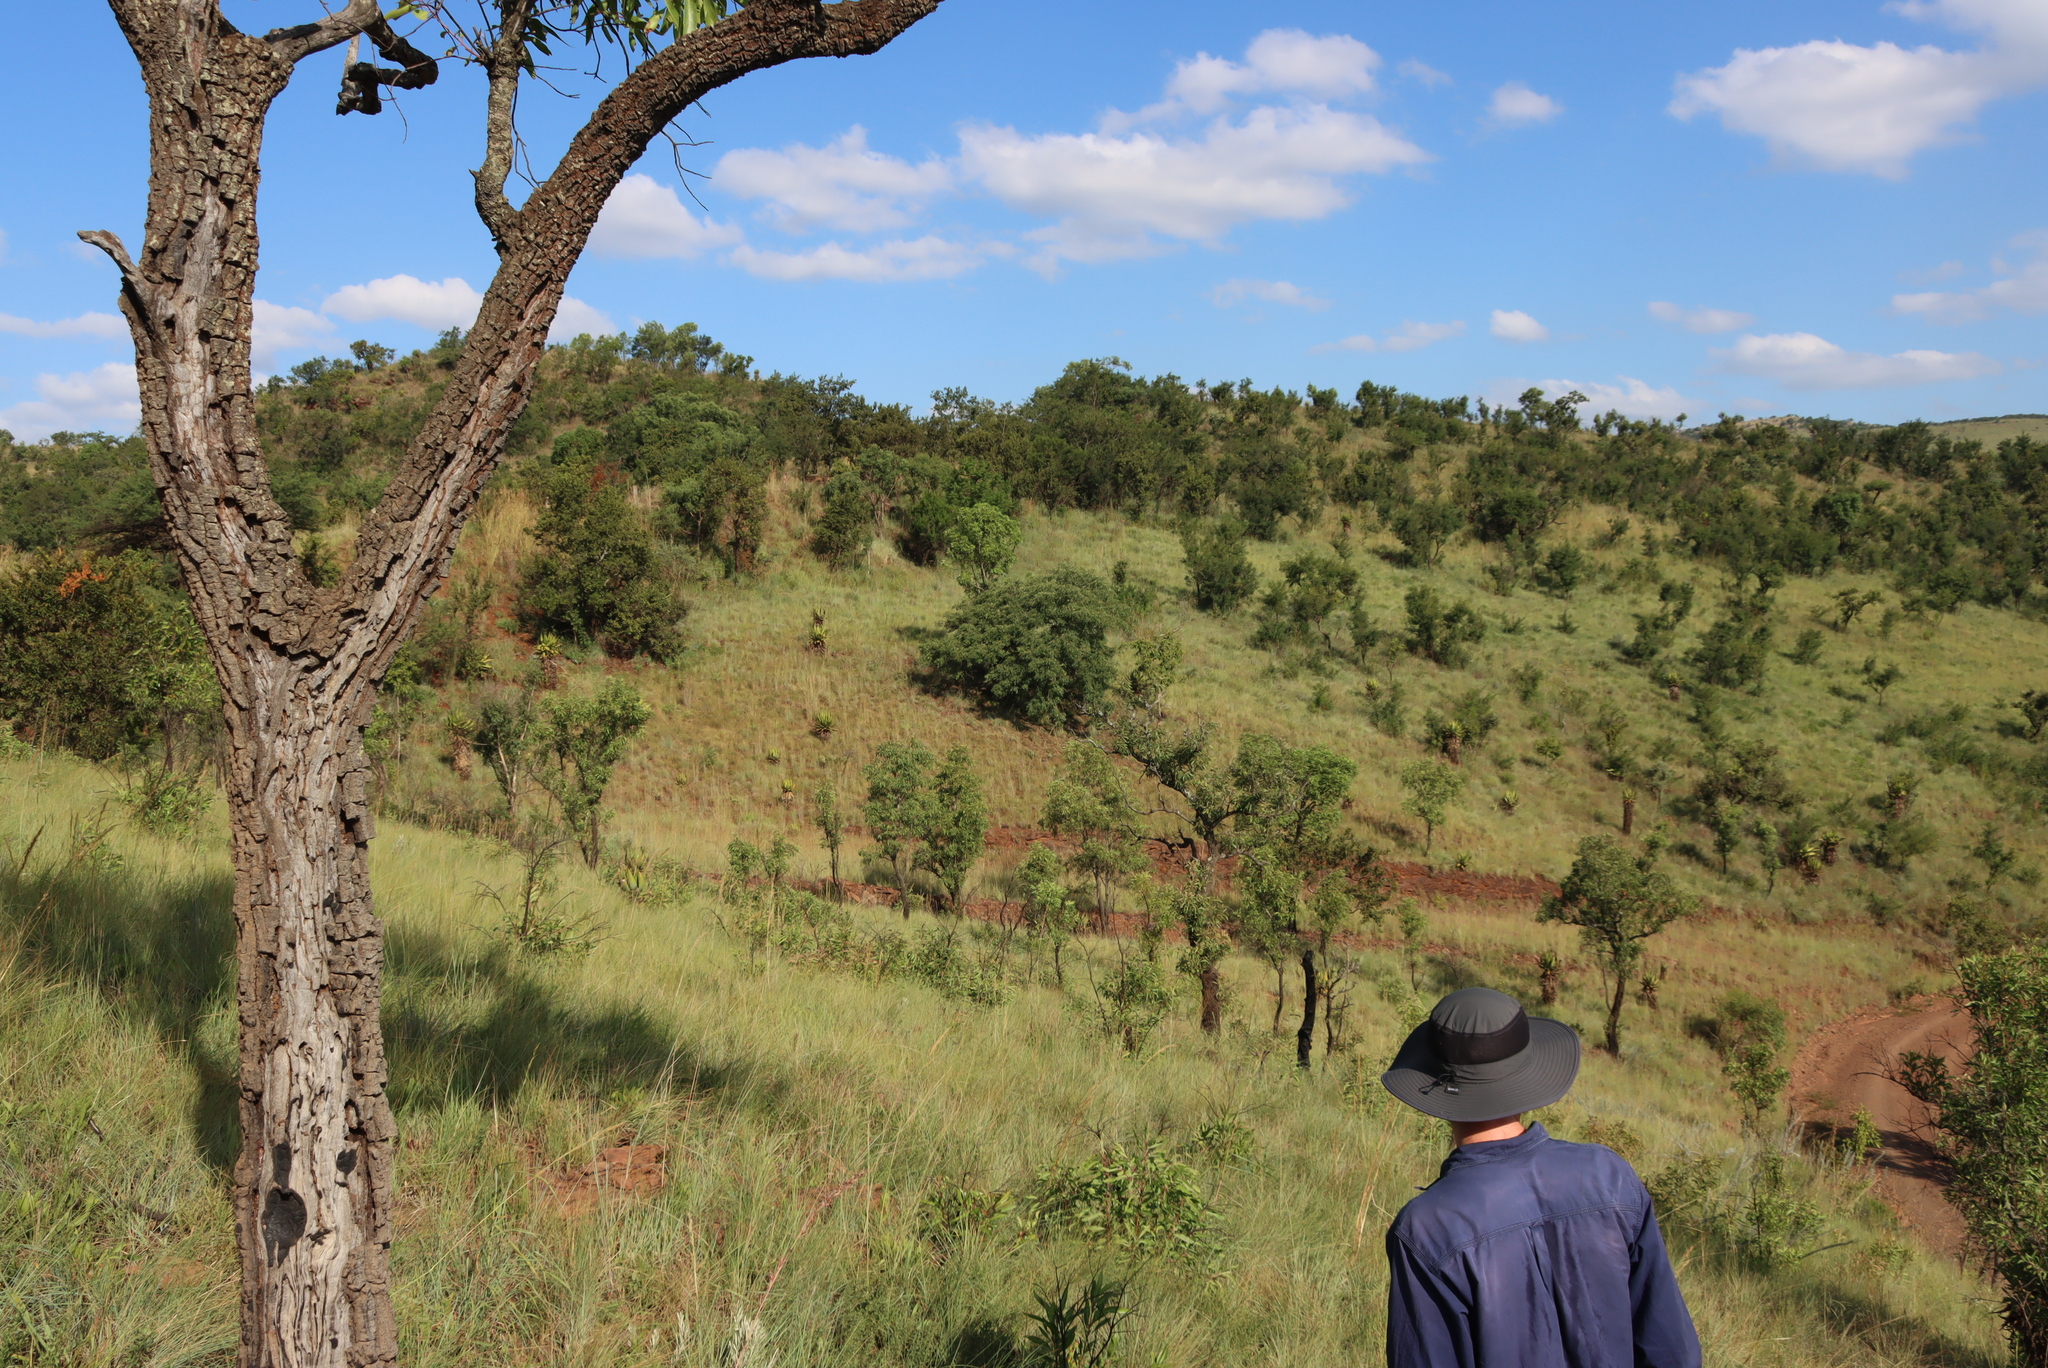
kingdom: Plantae
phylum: Tracheophyta
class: Magnoliopsida
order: Proteales
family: Proteaceae
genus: Faurea
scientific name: Faurea saligna
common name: African bean
